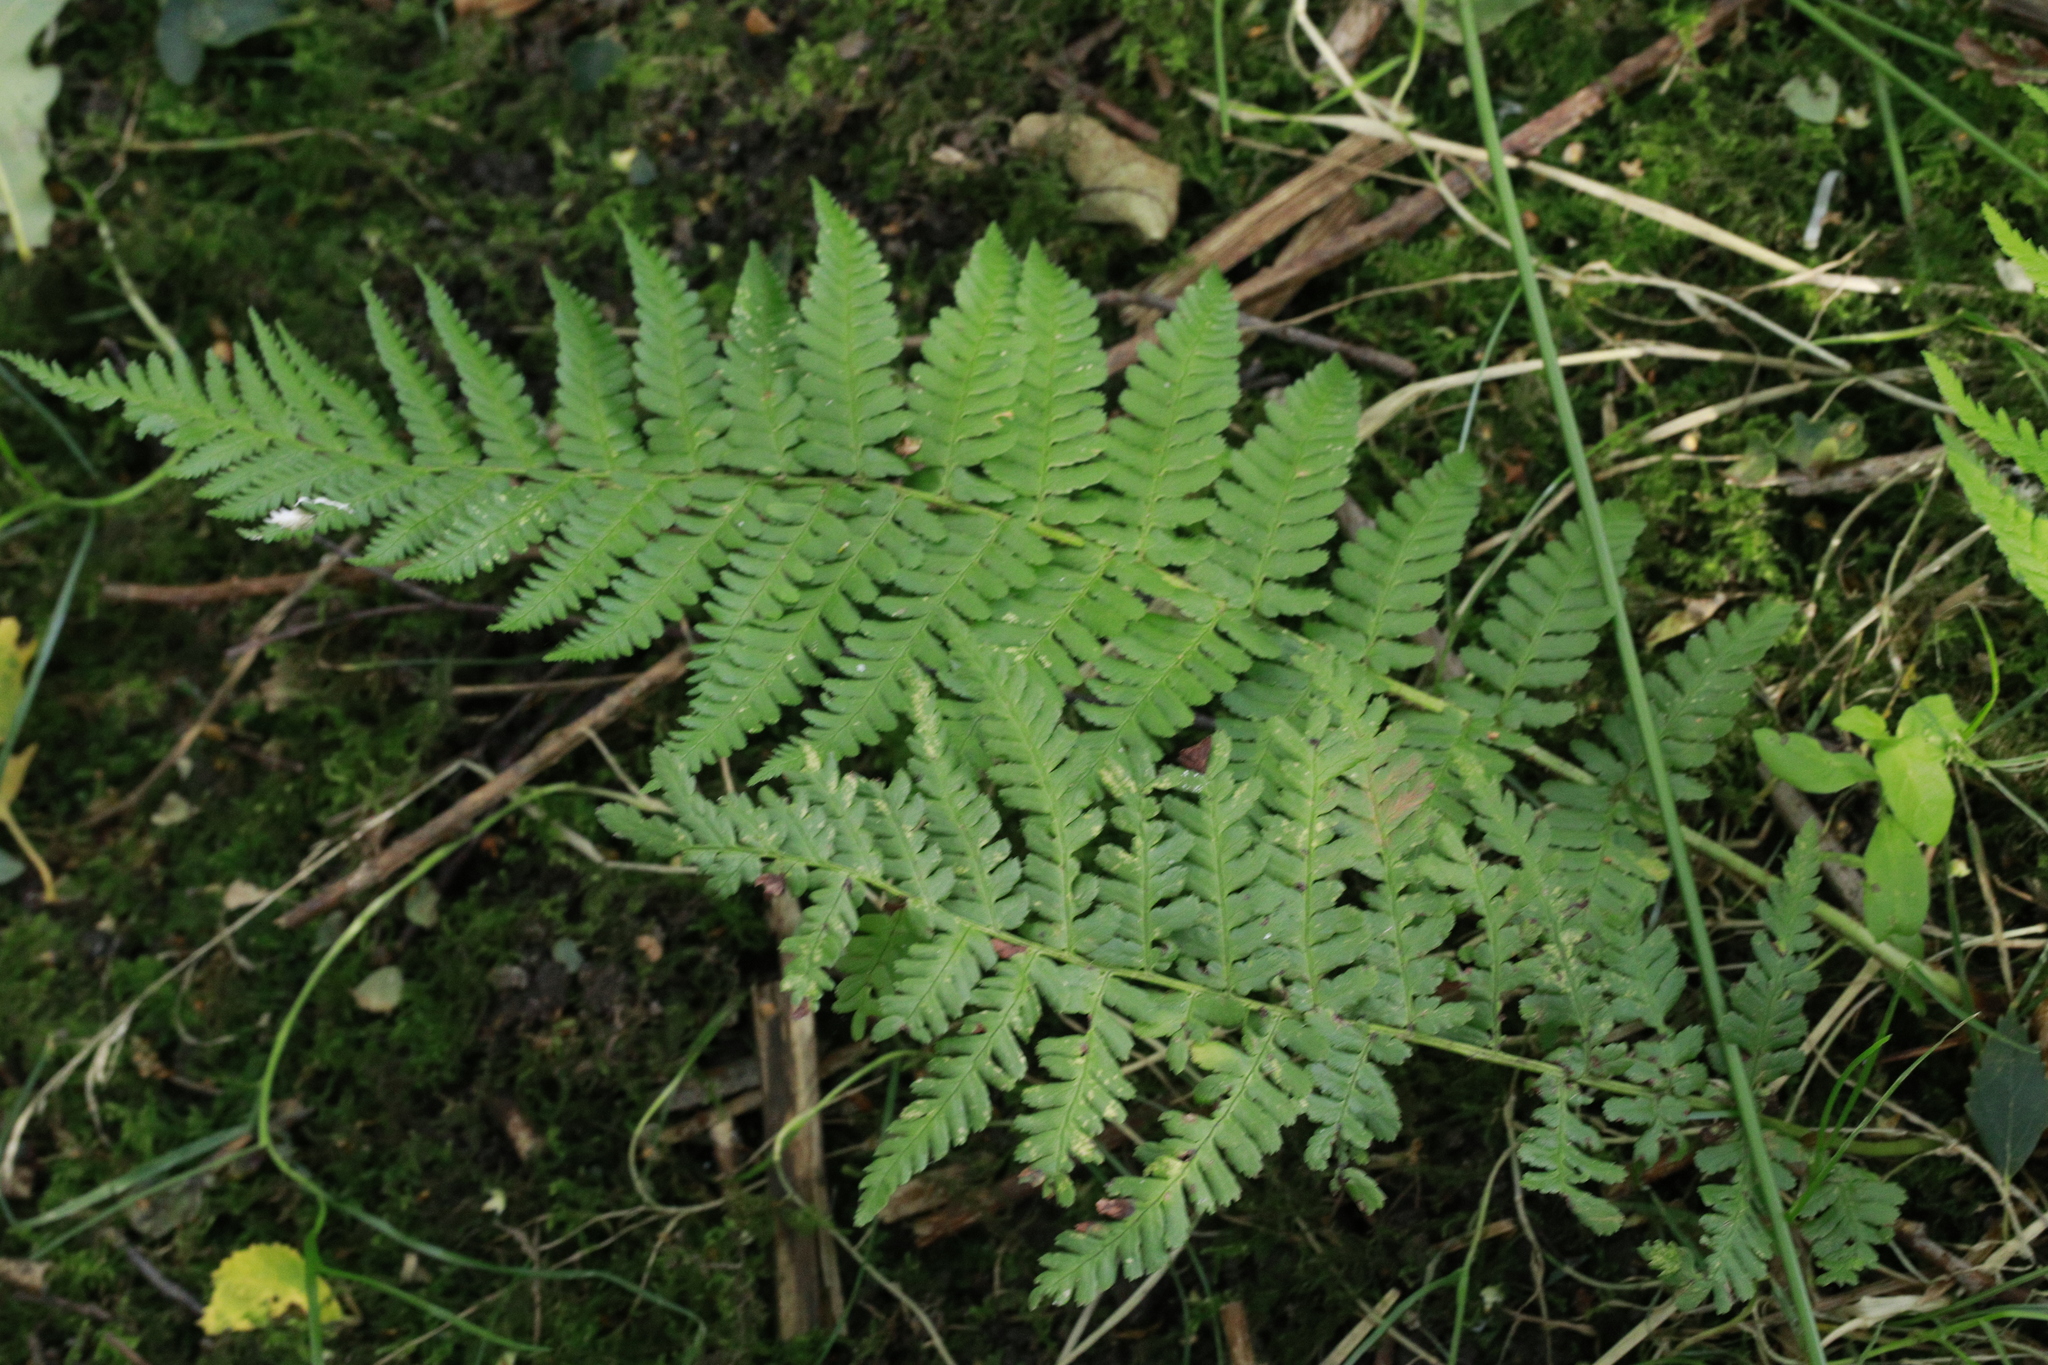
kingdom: Plantae
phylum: Tracheophyta
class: Polypodiopsida
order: Polypodiales
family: Dryopteridaceae
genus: Dryopteris
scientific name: Dryopteris filix-mas
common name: Male fern
